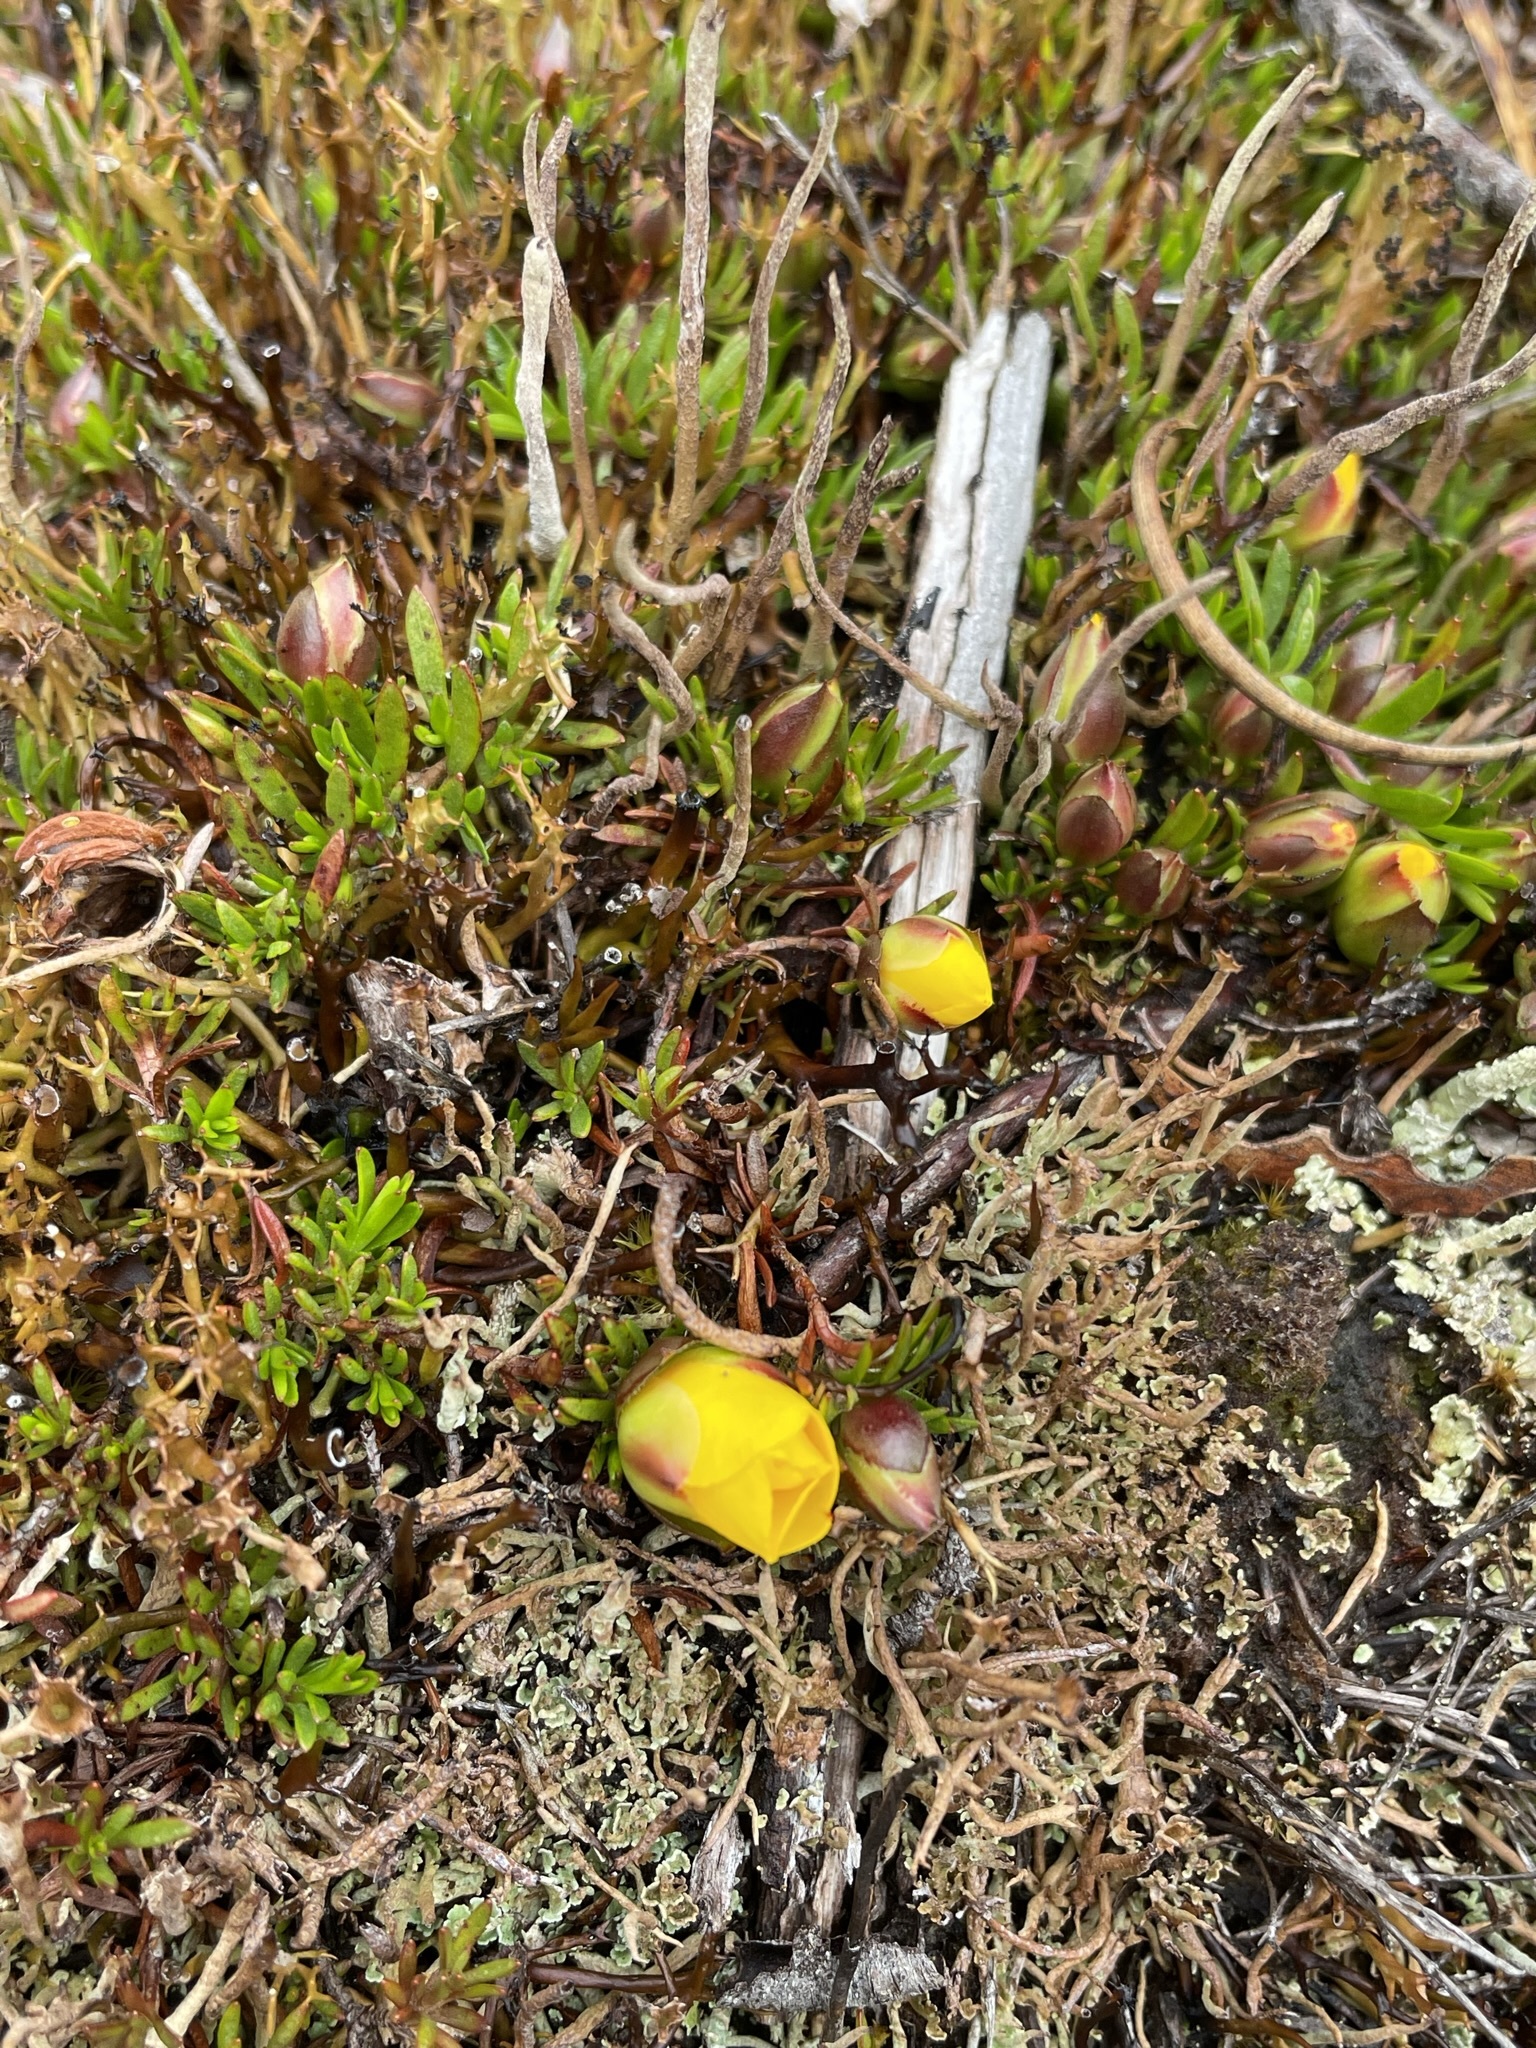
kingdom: Plantae
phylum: Tracheophyta
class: Magnoliopsida
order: Dilleniales
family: Dilleniaceae
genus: Hibbertia
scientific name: Hibbertia procumbens
